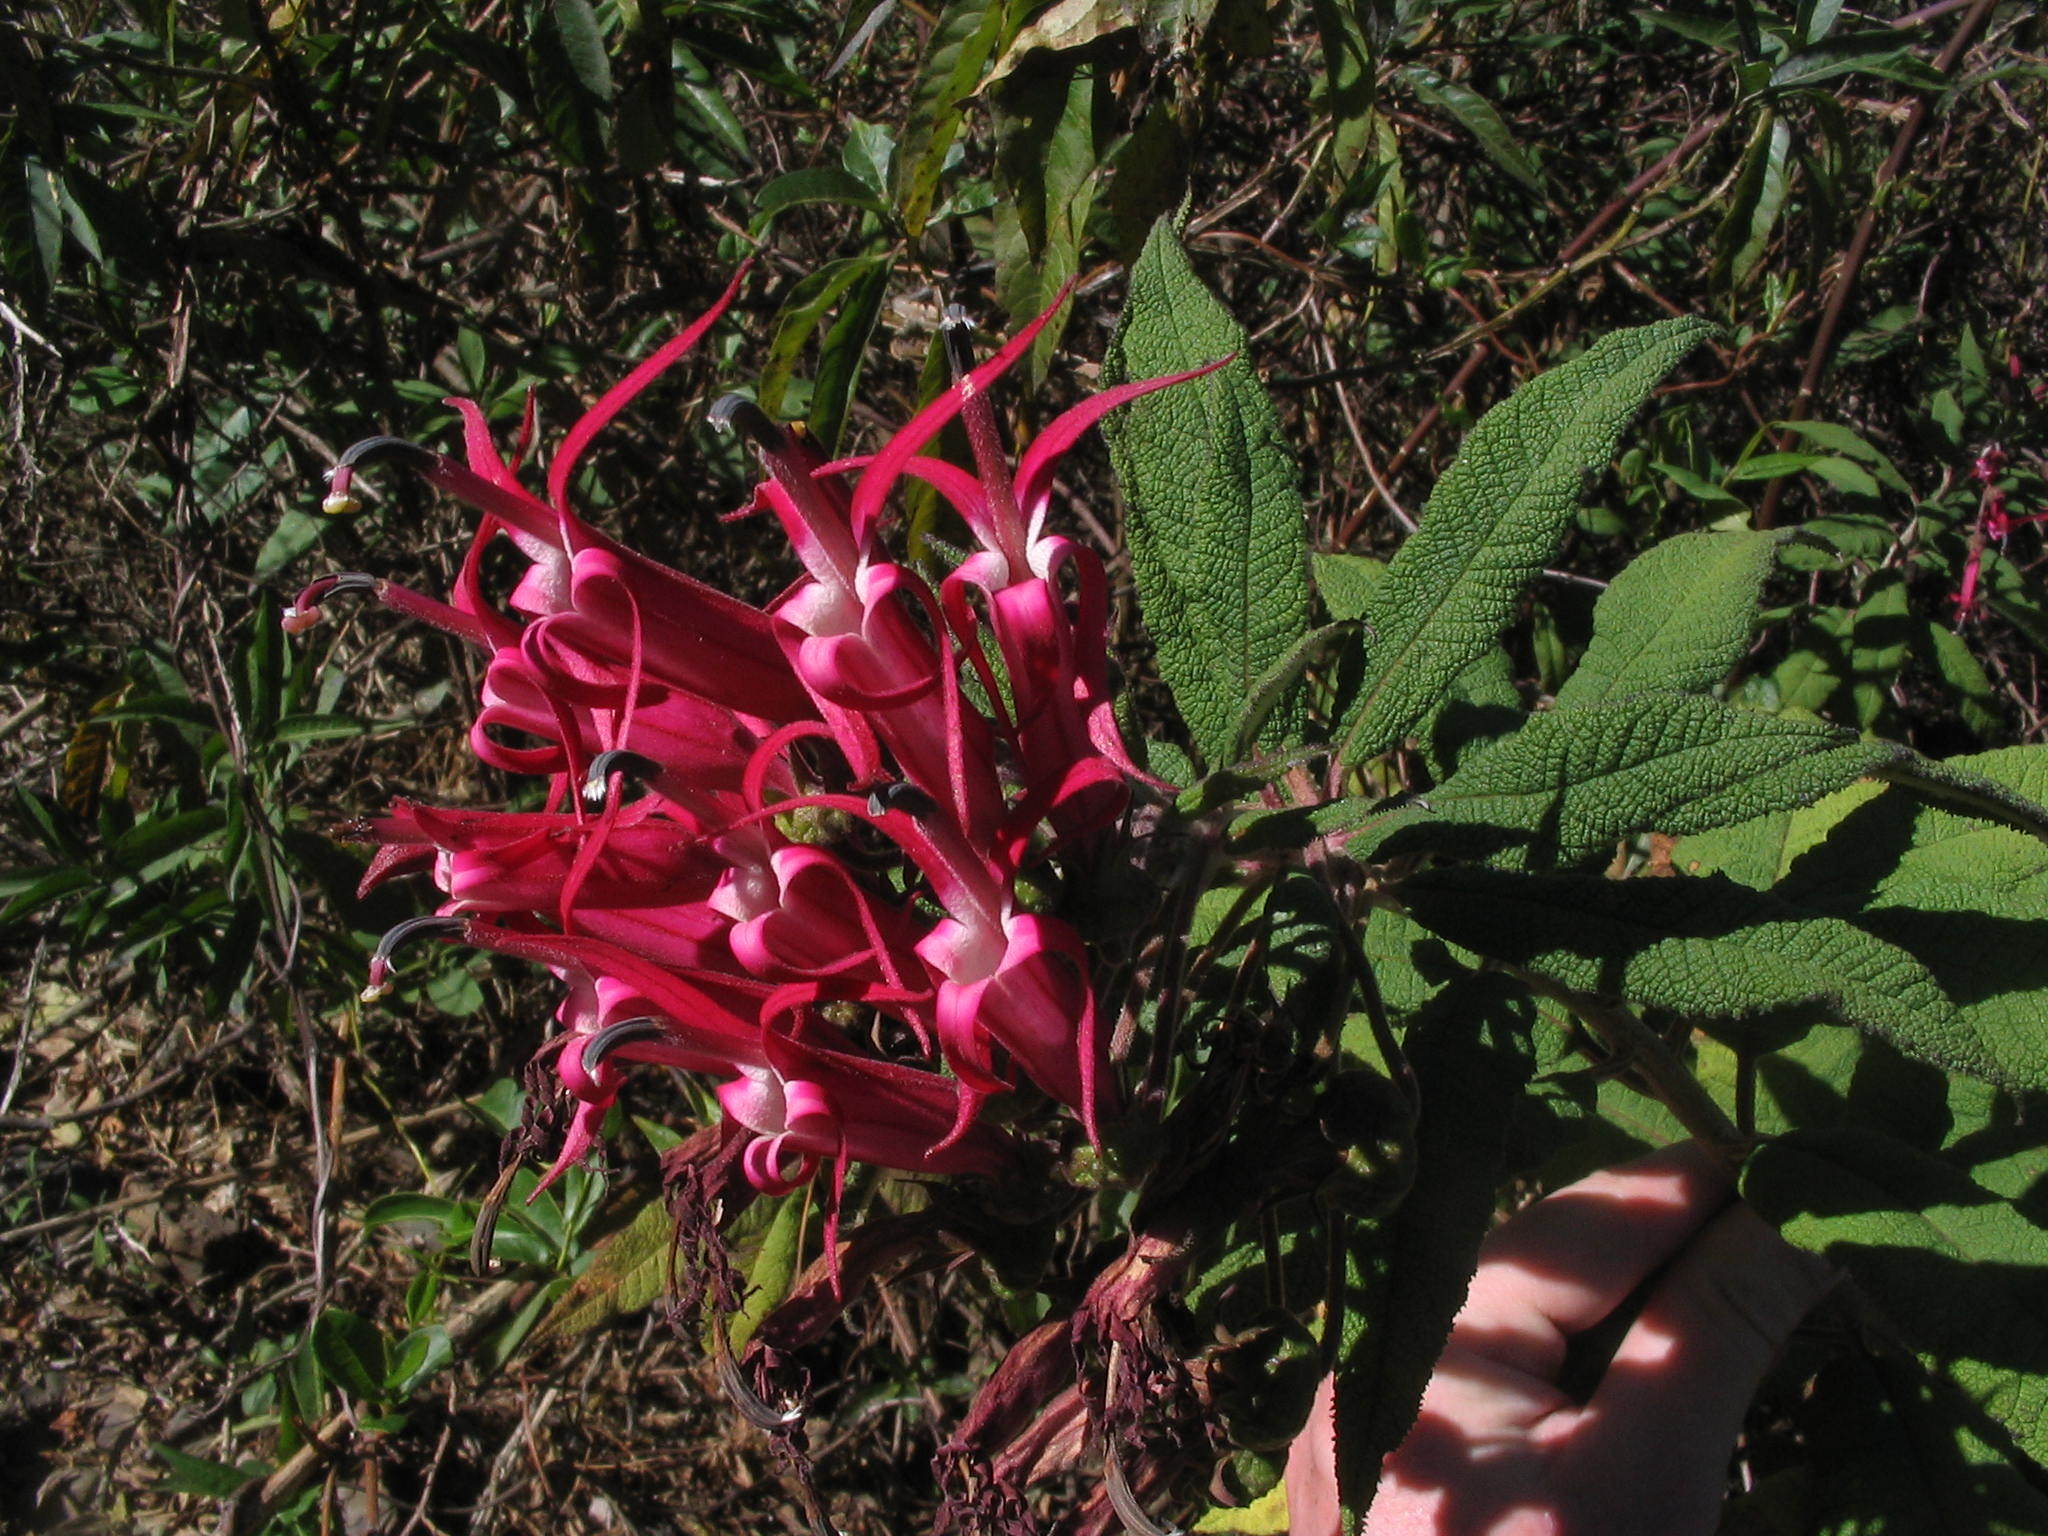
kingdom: Plantae
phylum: Tracheophyta
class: Magnoliopsida
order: Asterales
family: Campanulaceae
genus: Siphocampylus
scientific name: Siphocampylus boliviensis
